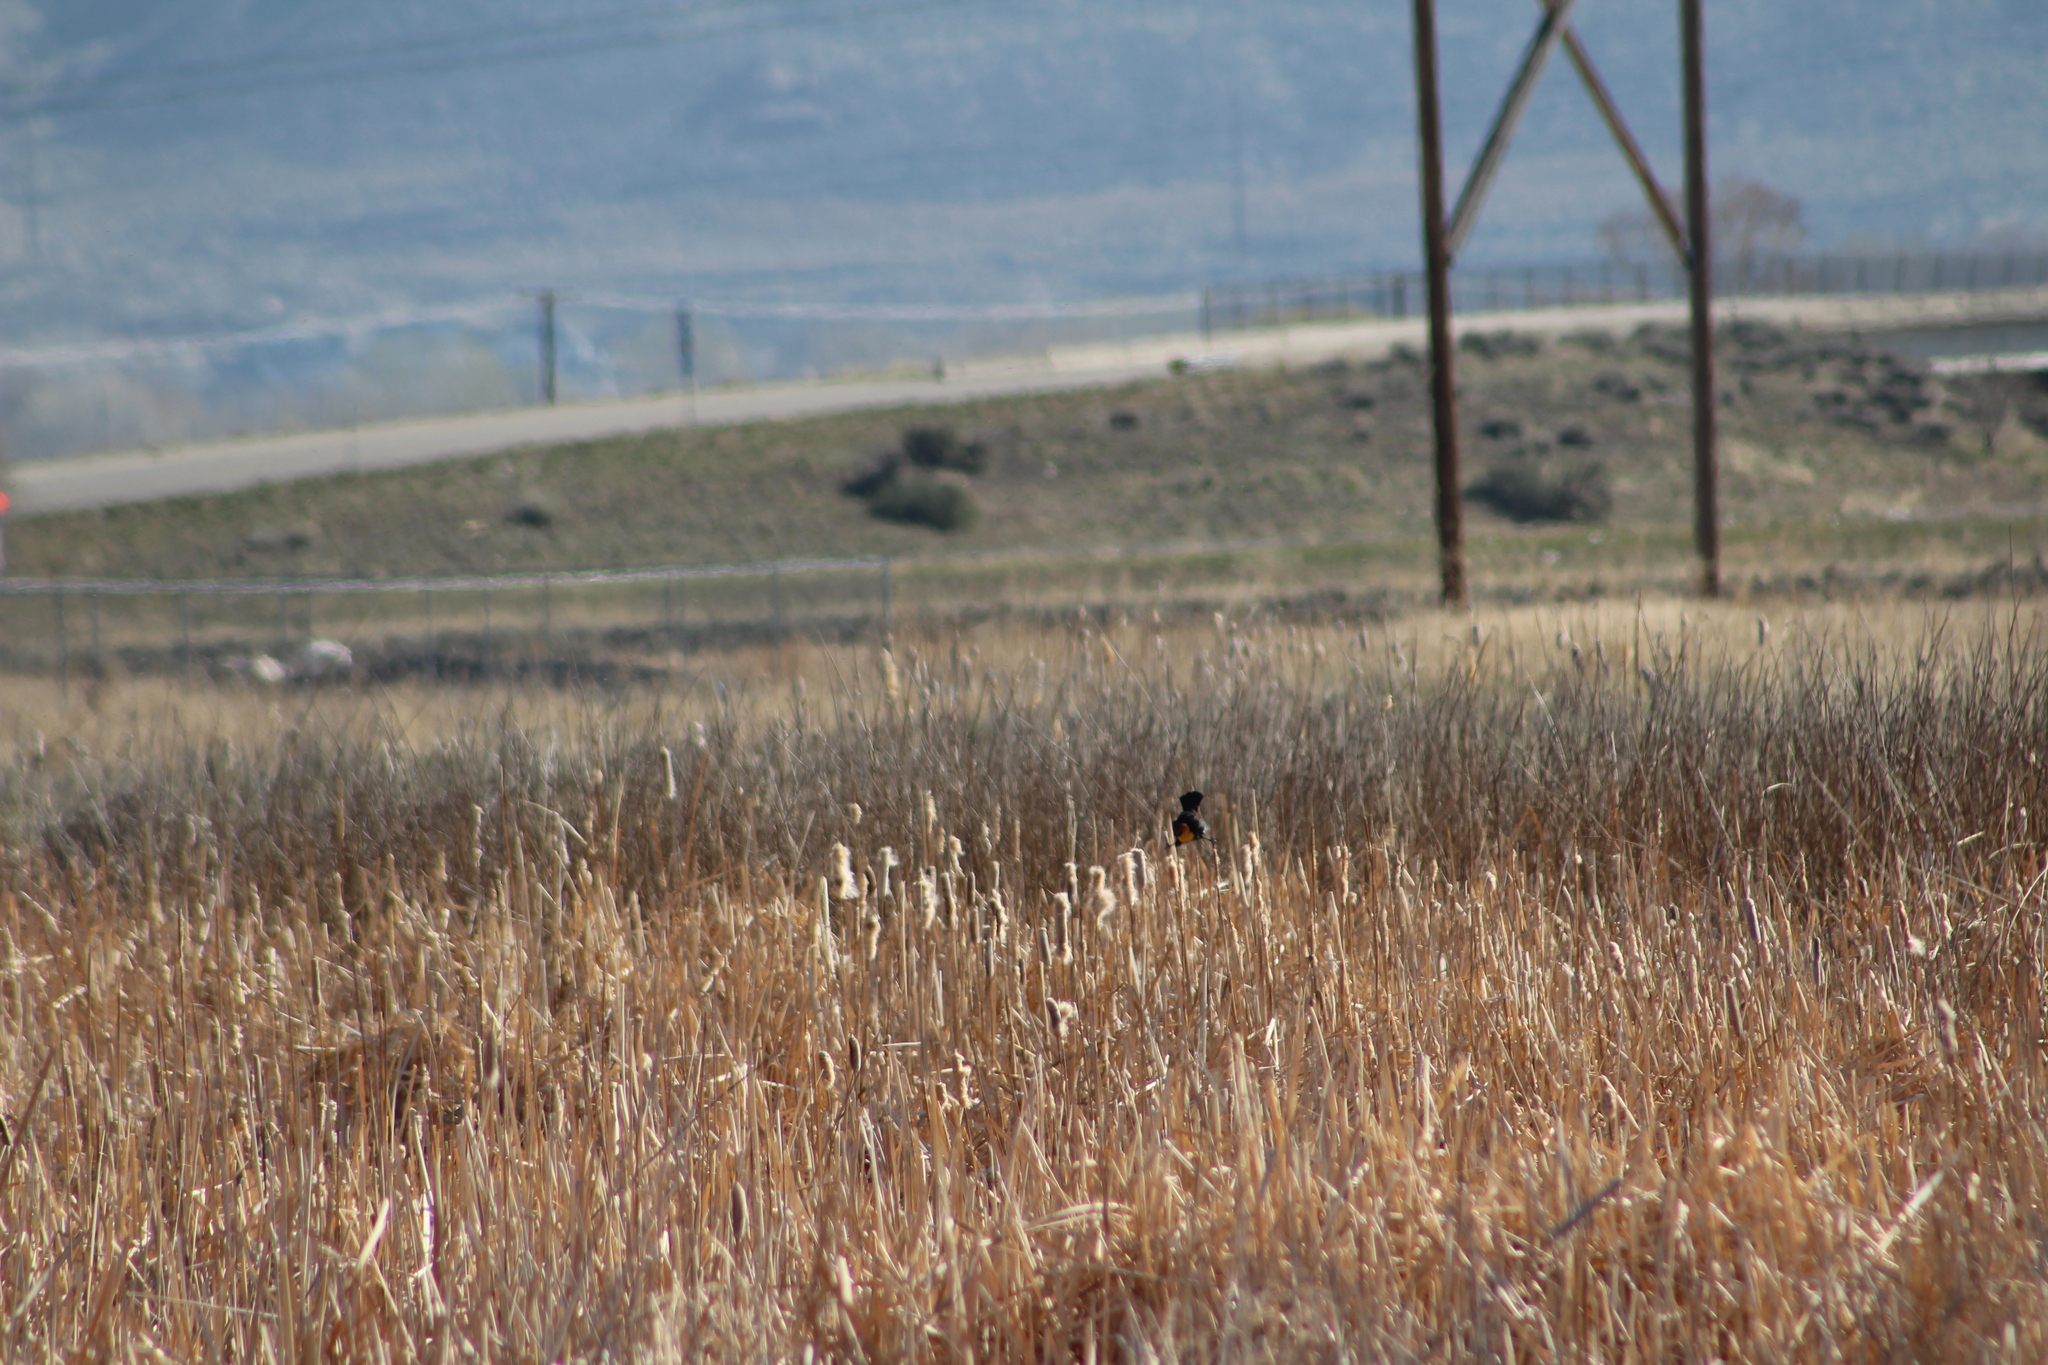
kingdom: Animalia
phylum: Chordata
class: Aves
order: Passeriformes
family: Icteridae
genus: Xanthocephalus
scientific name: Xanthocephalus xanthocephalus
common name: Yellow-headed blackbird
